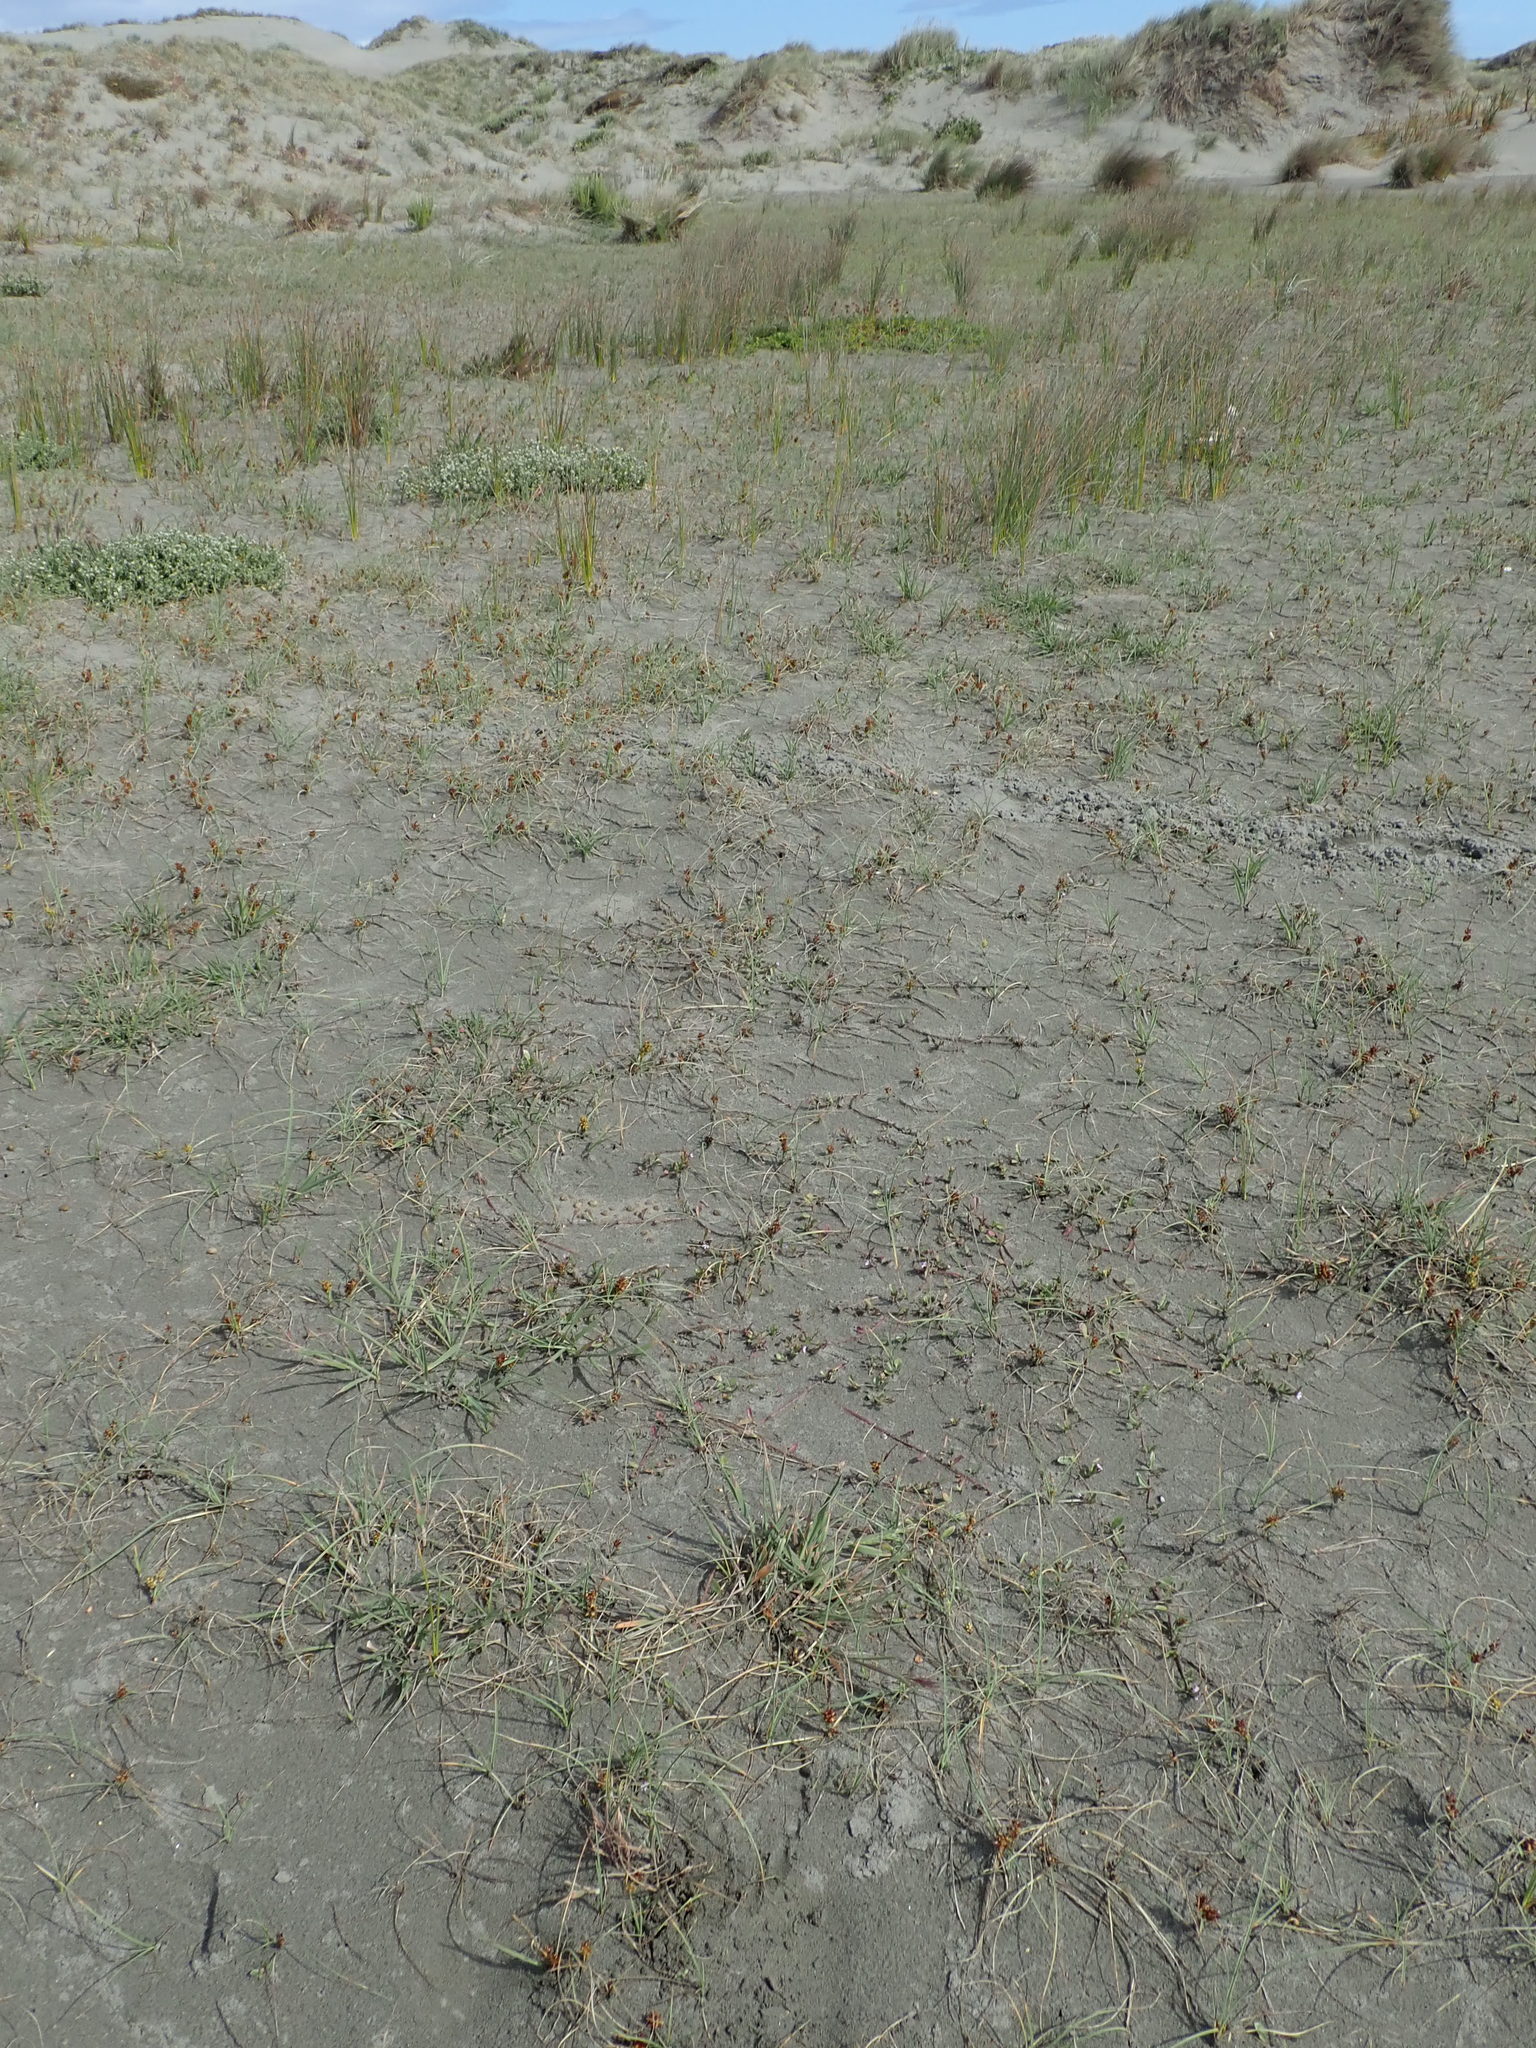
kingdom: Plantae
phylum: Tracheophyta
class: Magnoliopsida
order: Asterales
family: Campanulaceae
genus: Lobelia
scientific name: Lobelia anceps
